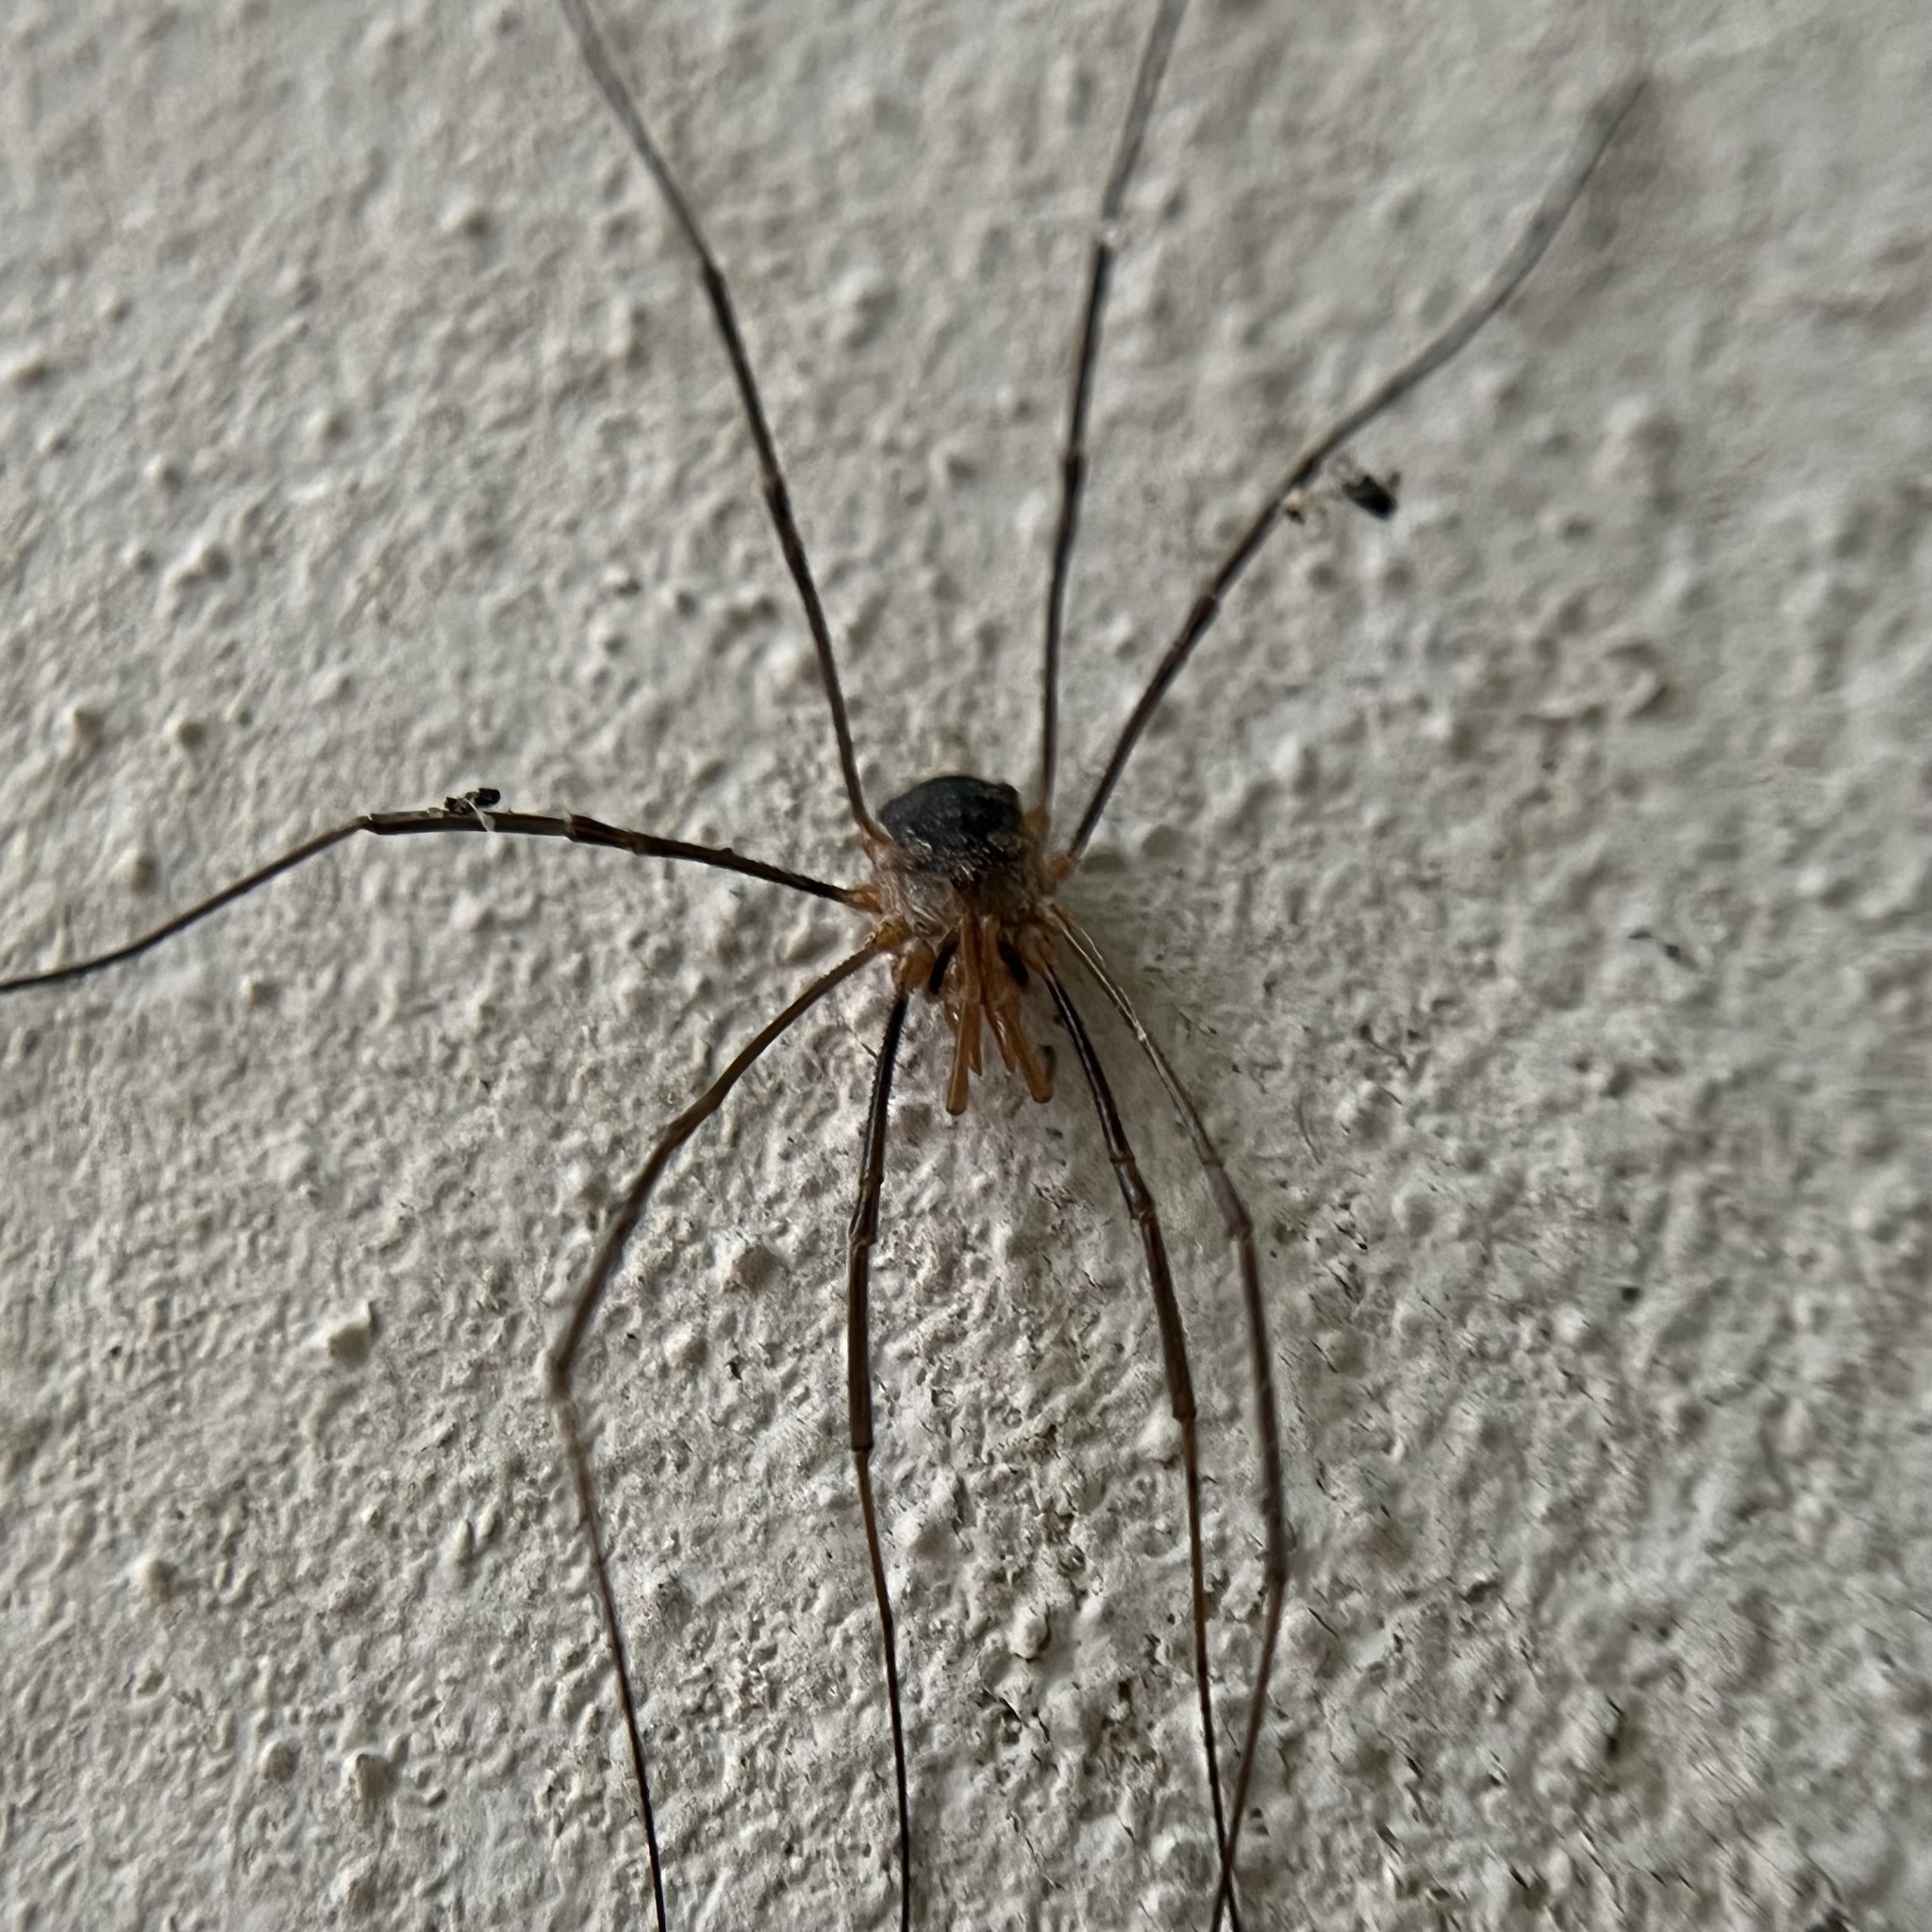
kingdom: Animalia
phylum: Arthropoda
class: Arachnida
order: Opiliones
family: Phalangiidae
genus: Phalangium
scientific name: Phalangium opilio
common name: Daddy longleg
